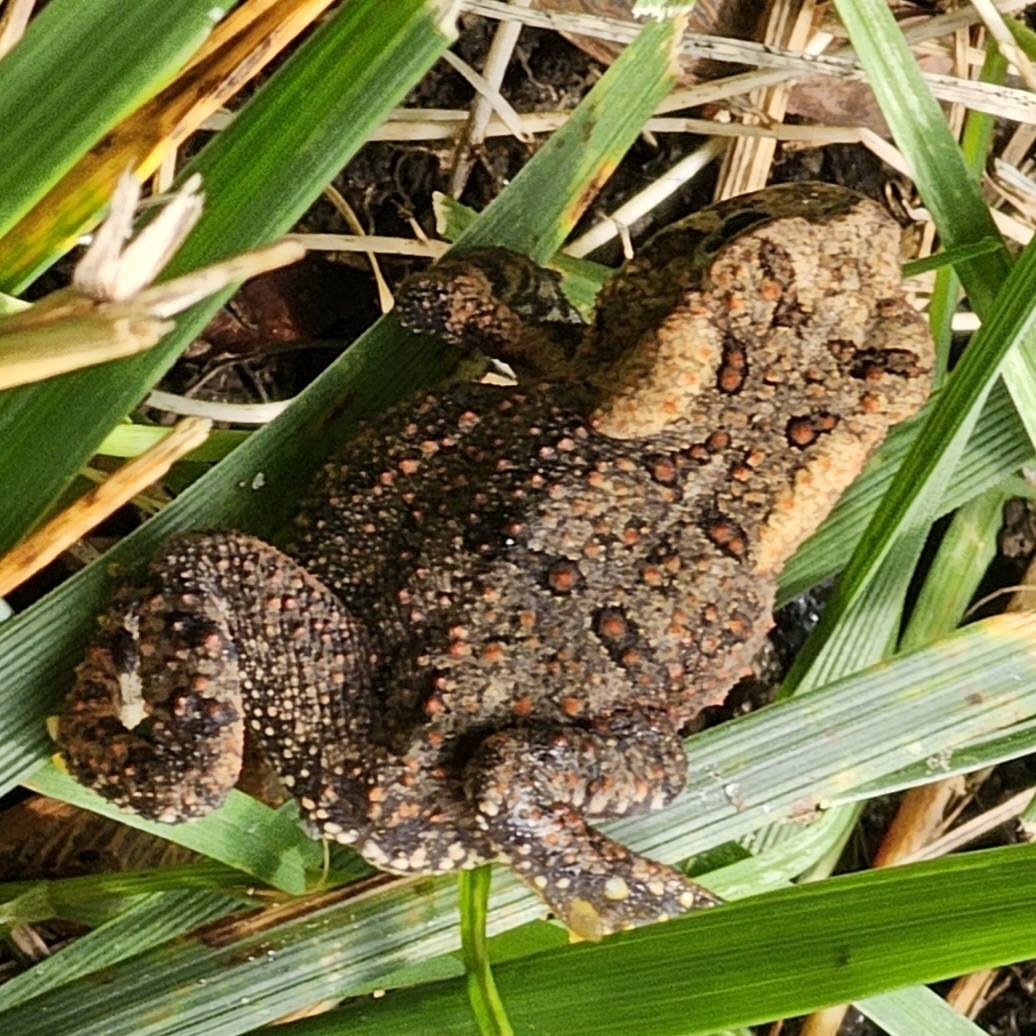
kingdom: Animalia
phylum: Chordata
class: Amphibia
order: Anura
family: Bufonidae
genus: Anaxyrus
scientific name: Anaxyrus americanus
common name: American toad
